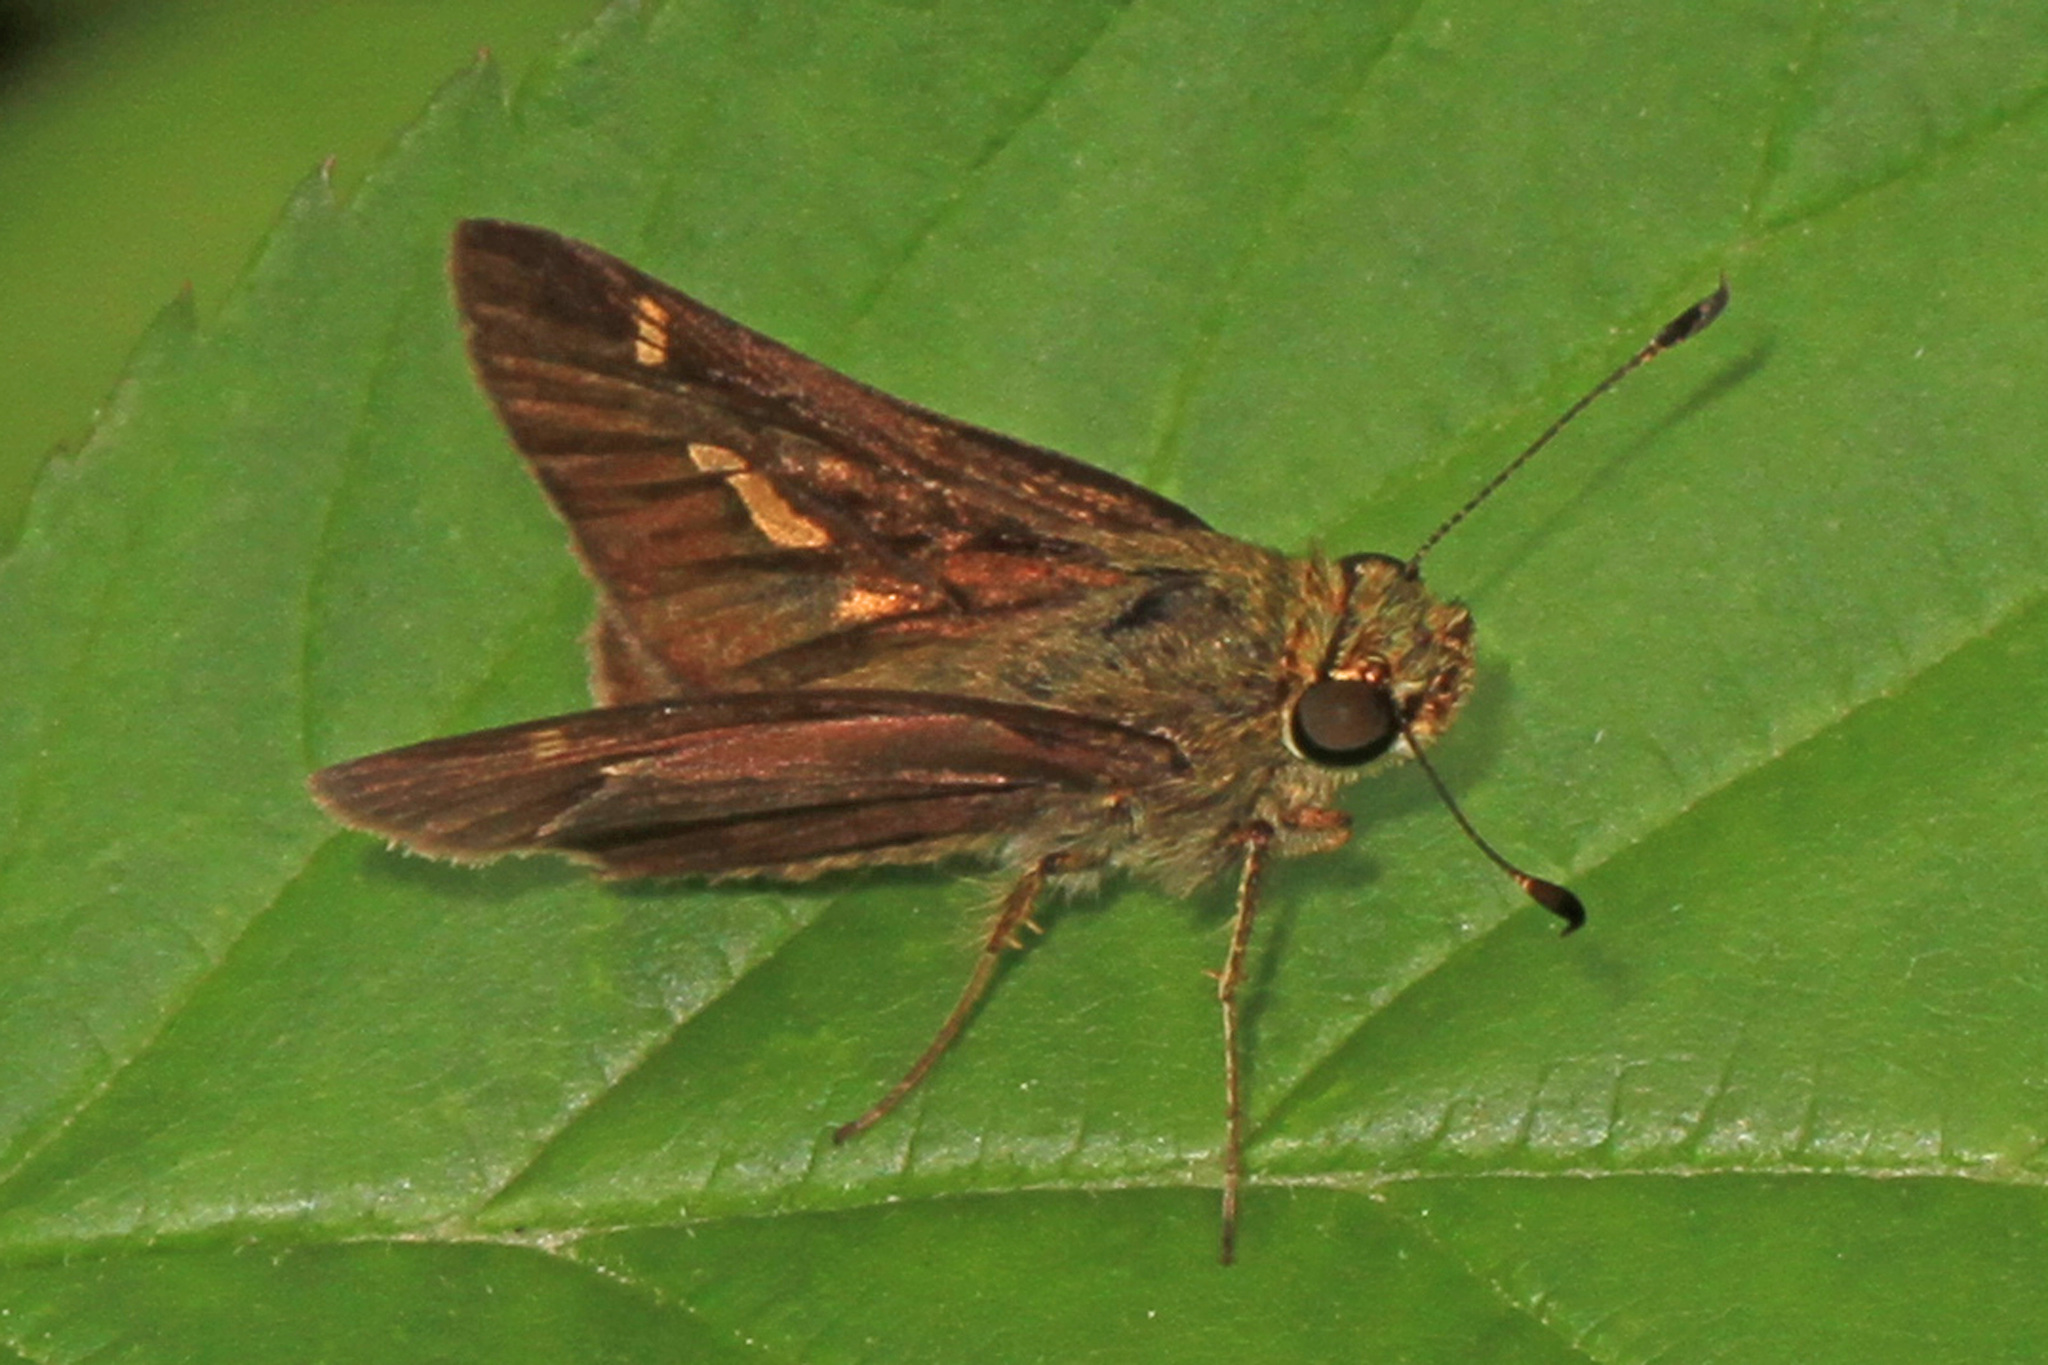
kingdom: Animalia
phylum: Arthropoda
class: Insecta
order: Lepidoptera
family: Hesperiidae
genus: Vernia
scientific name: Vernia verna
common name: Little glassywing
